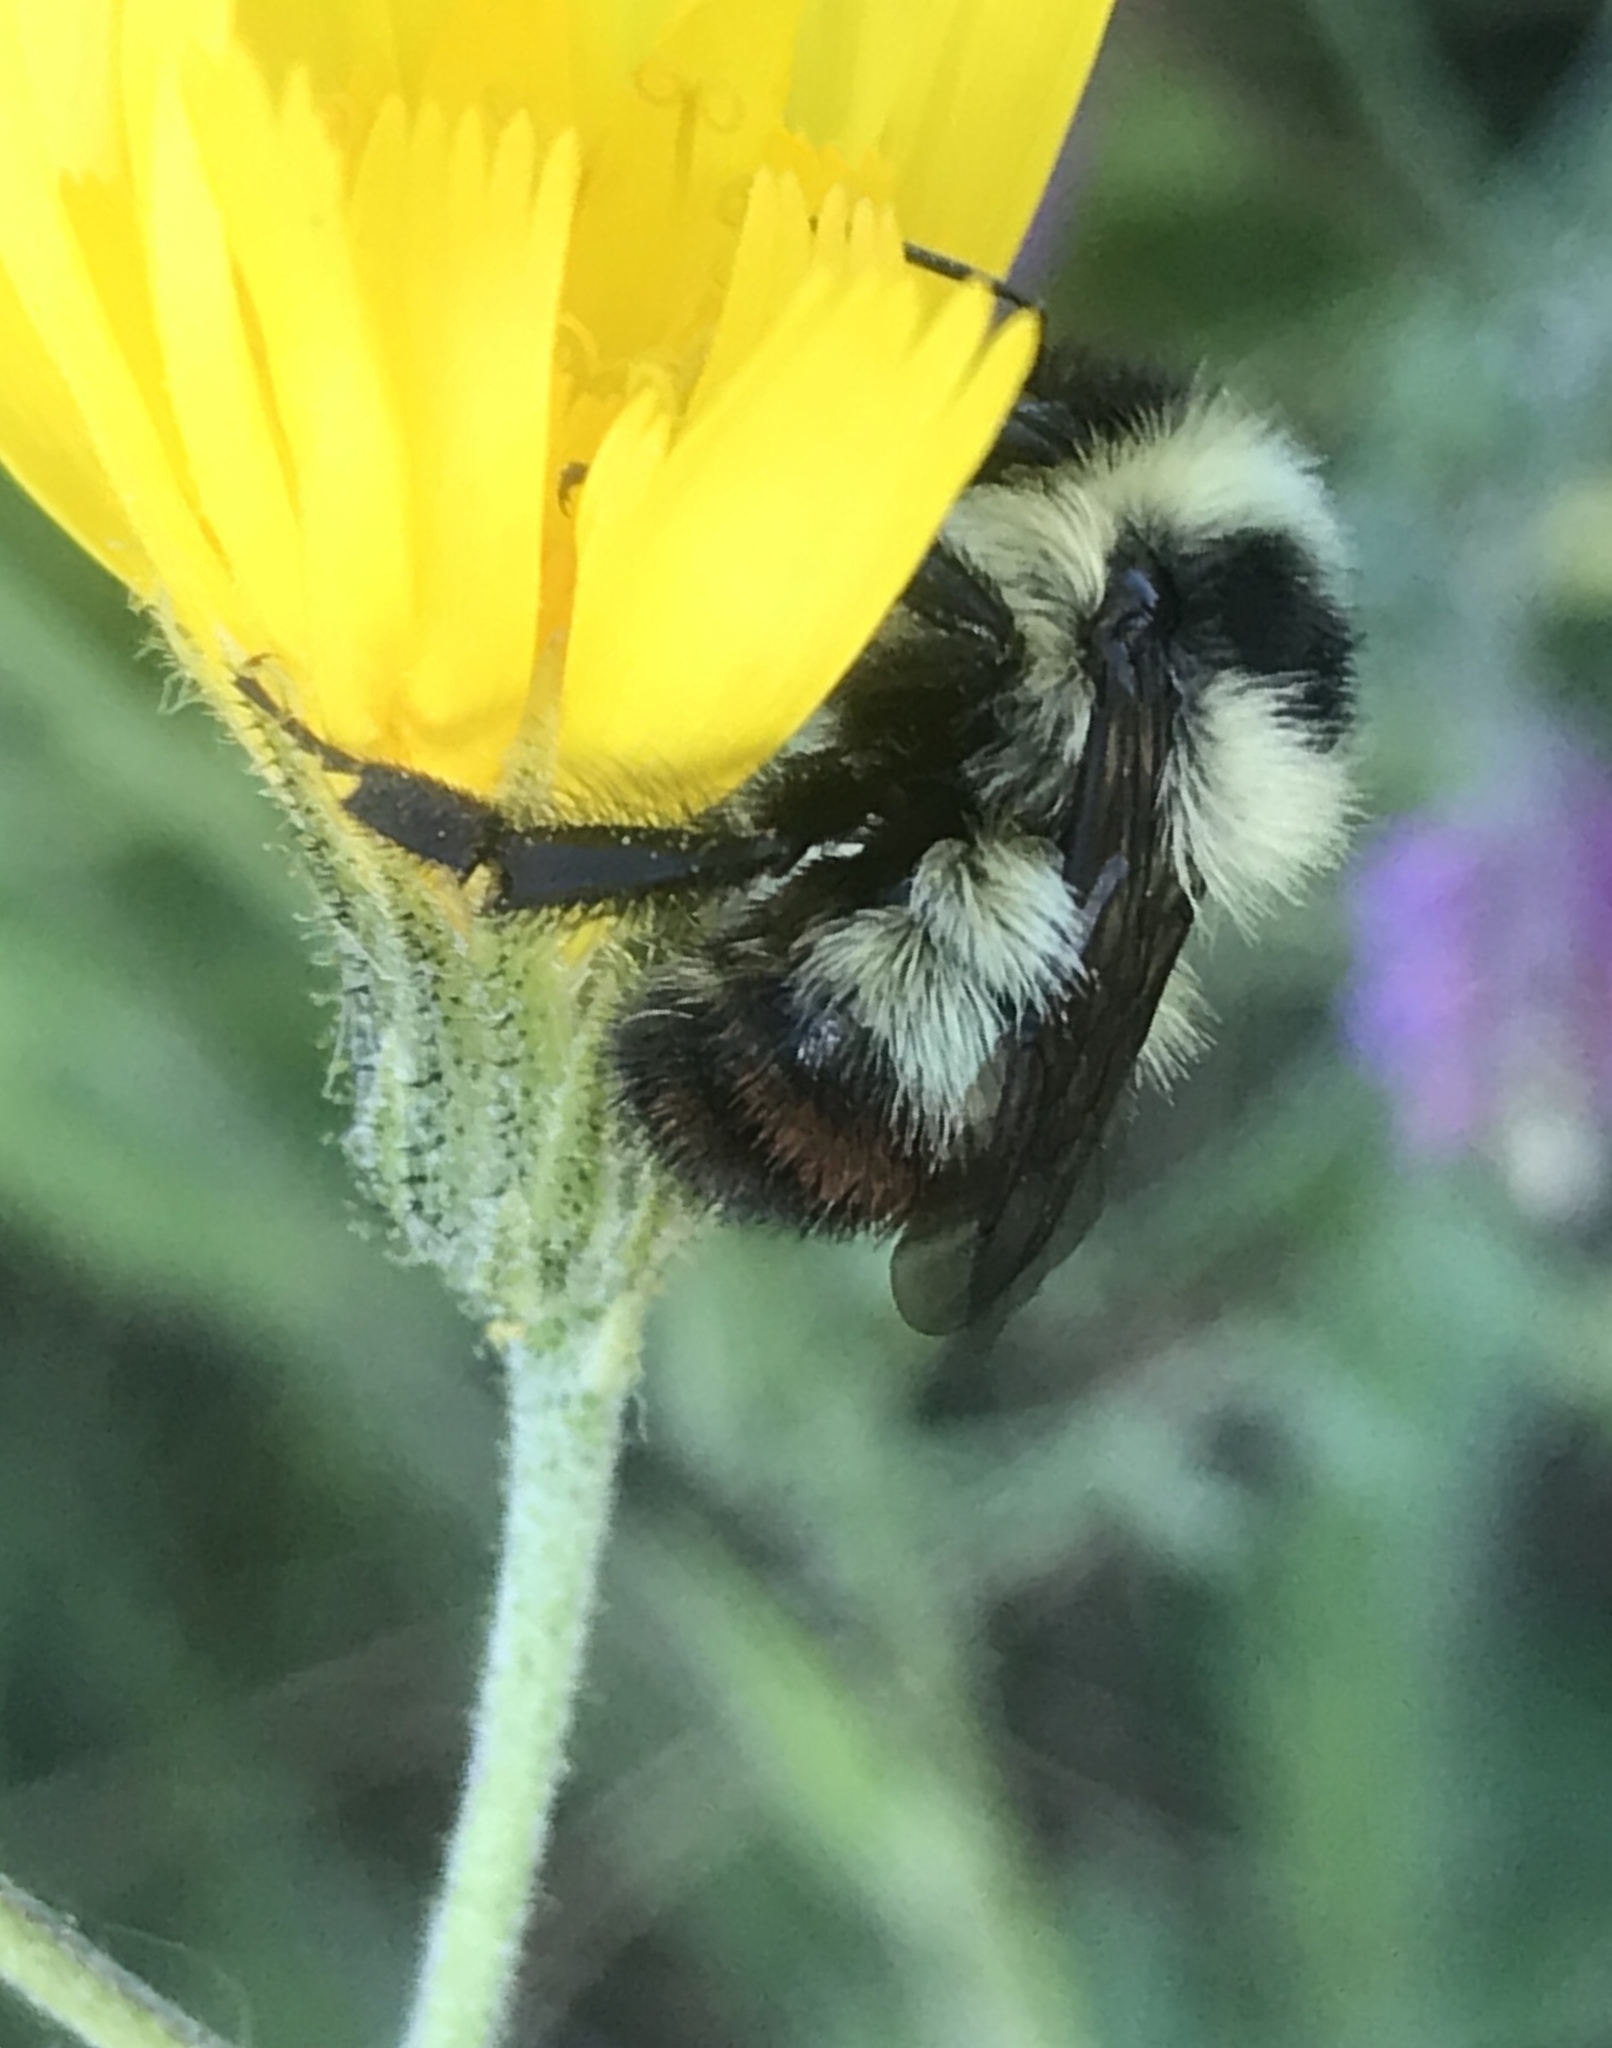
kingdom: Animalia
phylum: Arthropoda
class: Insecta
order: Hymenoptera
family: Apidae
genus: Bombus
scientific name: Bombus rufocinctus
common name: Red-belted bumble bee
